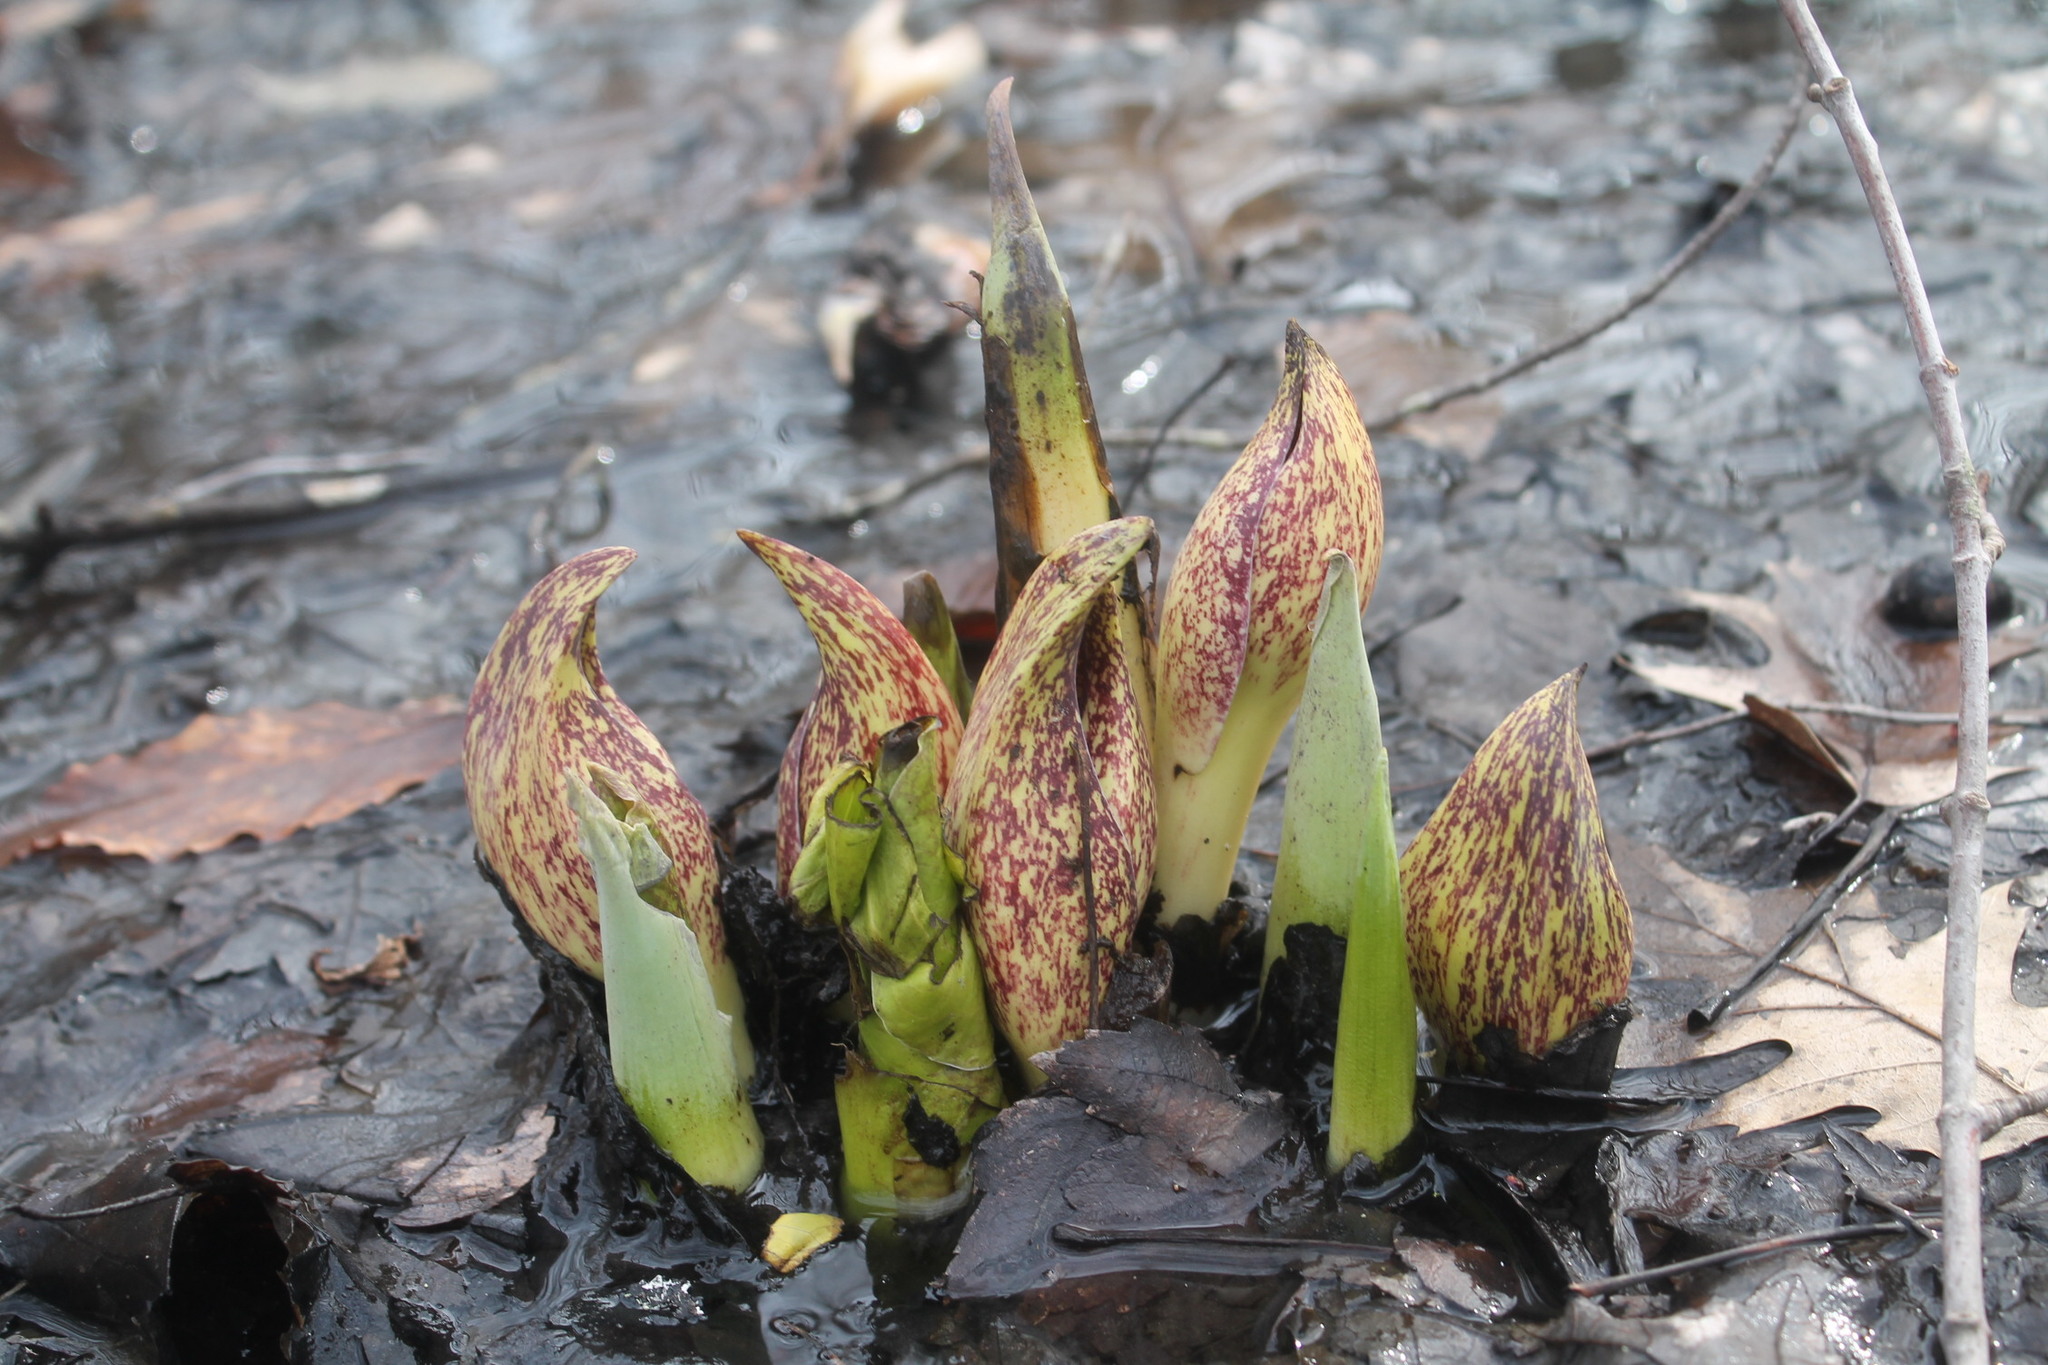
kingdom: Plantae
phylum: Tracheophyta
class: Liliopsida
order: Alismatales
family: Araceae
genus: Symplocarpus
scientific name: Symplocarpus foetidus
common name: Eastern skunk cabbage
